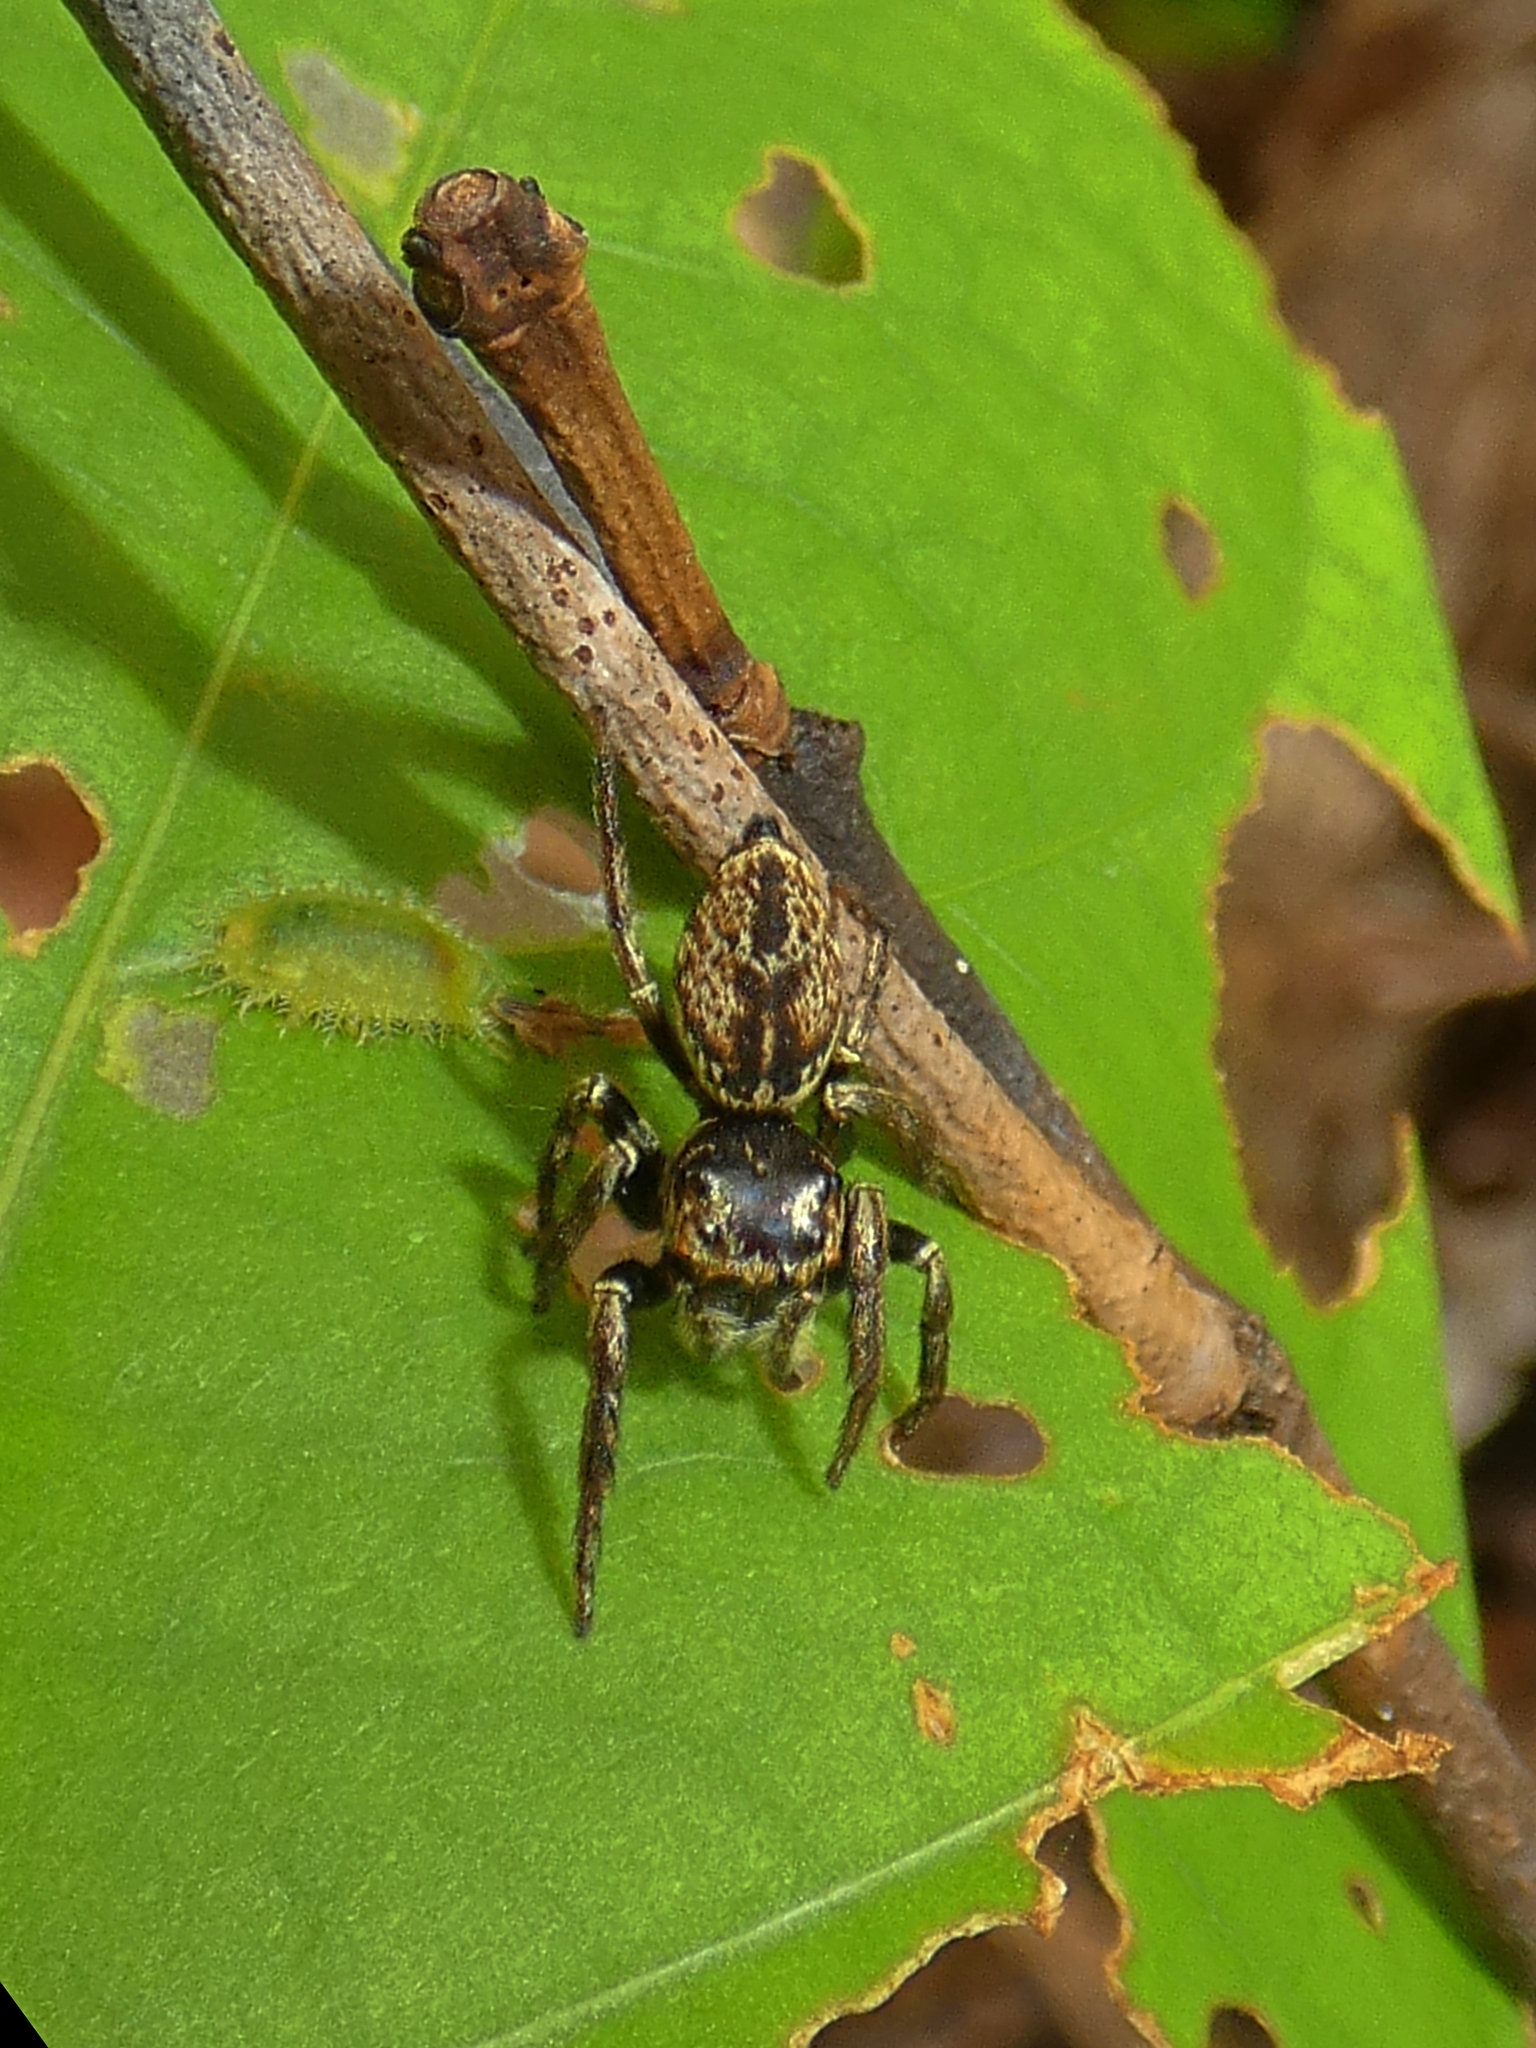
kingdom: Animalia
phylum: Arthropoda
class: Arachnida
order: Araneae
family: Salticidae
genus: Euryattus
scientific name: Euryattus bleekeri
